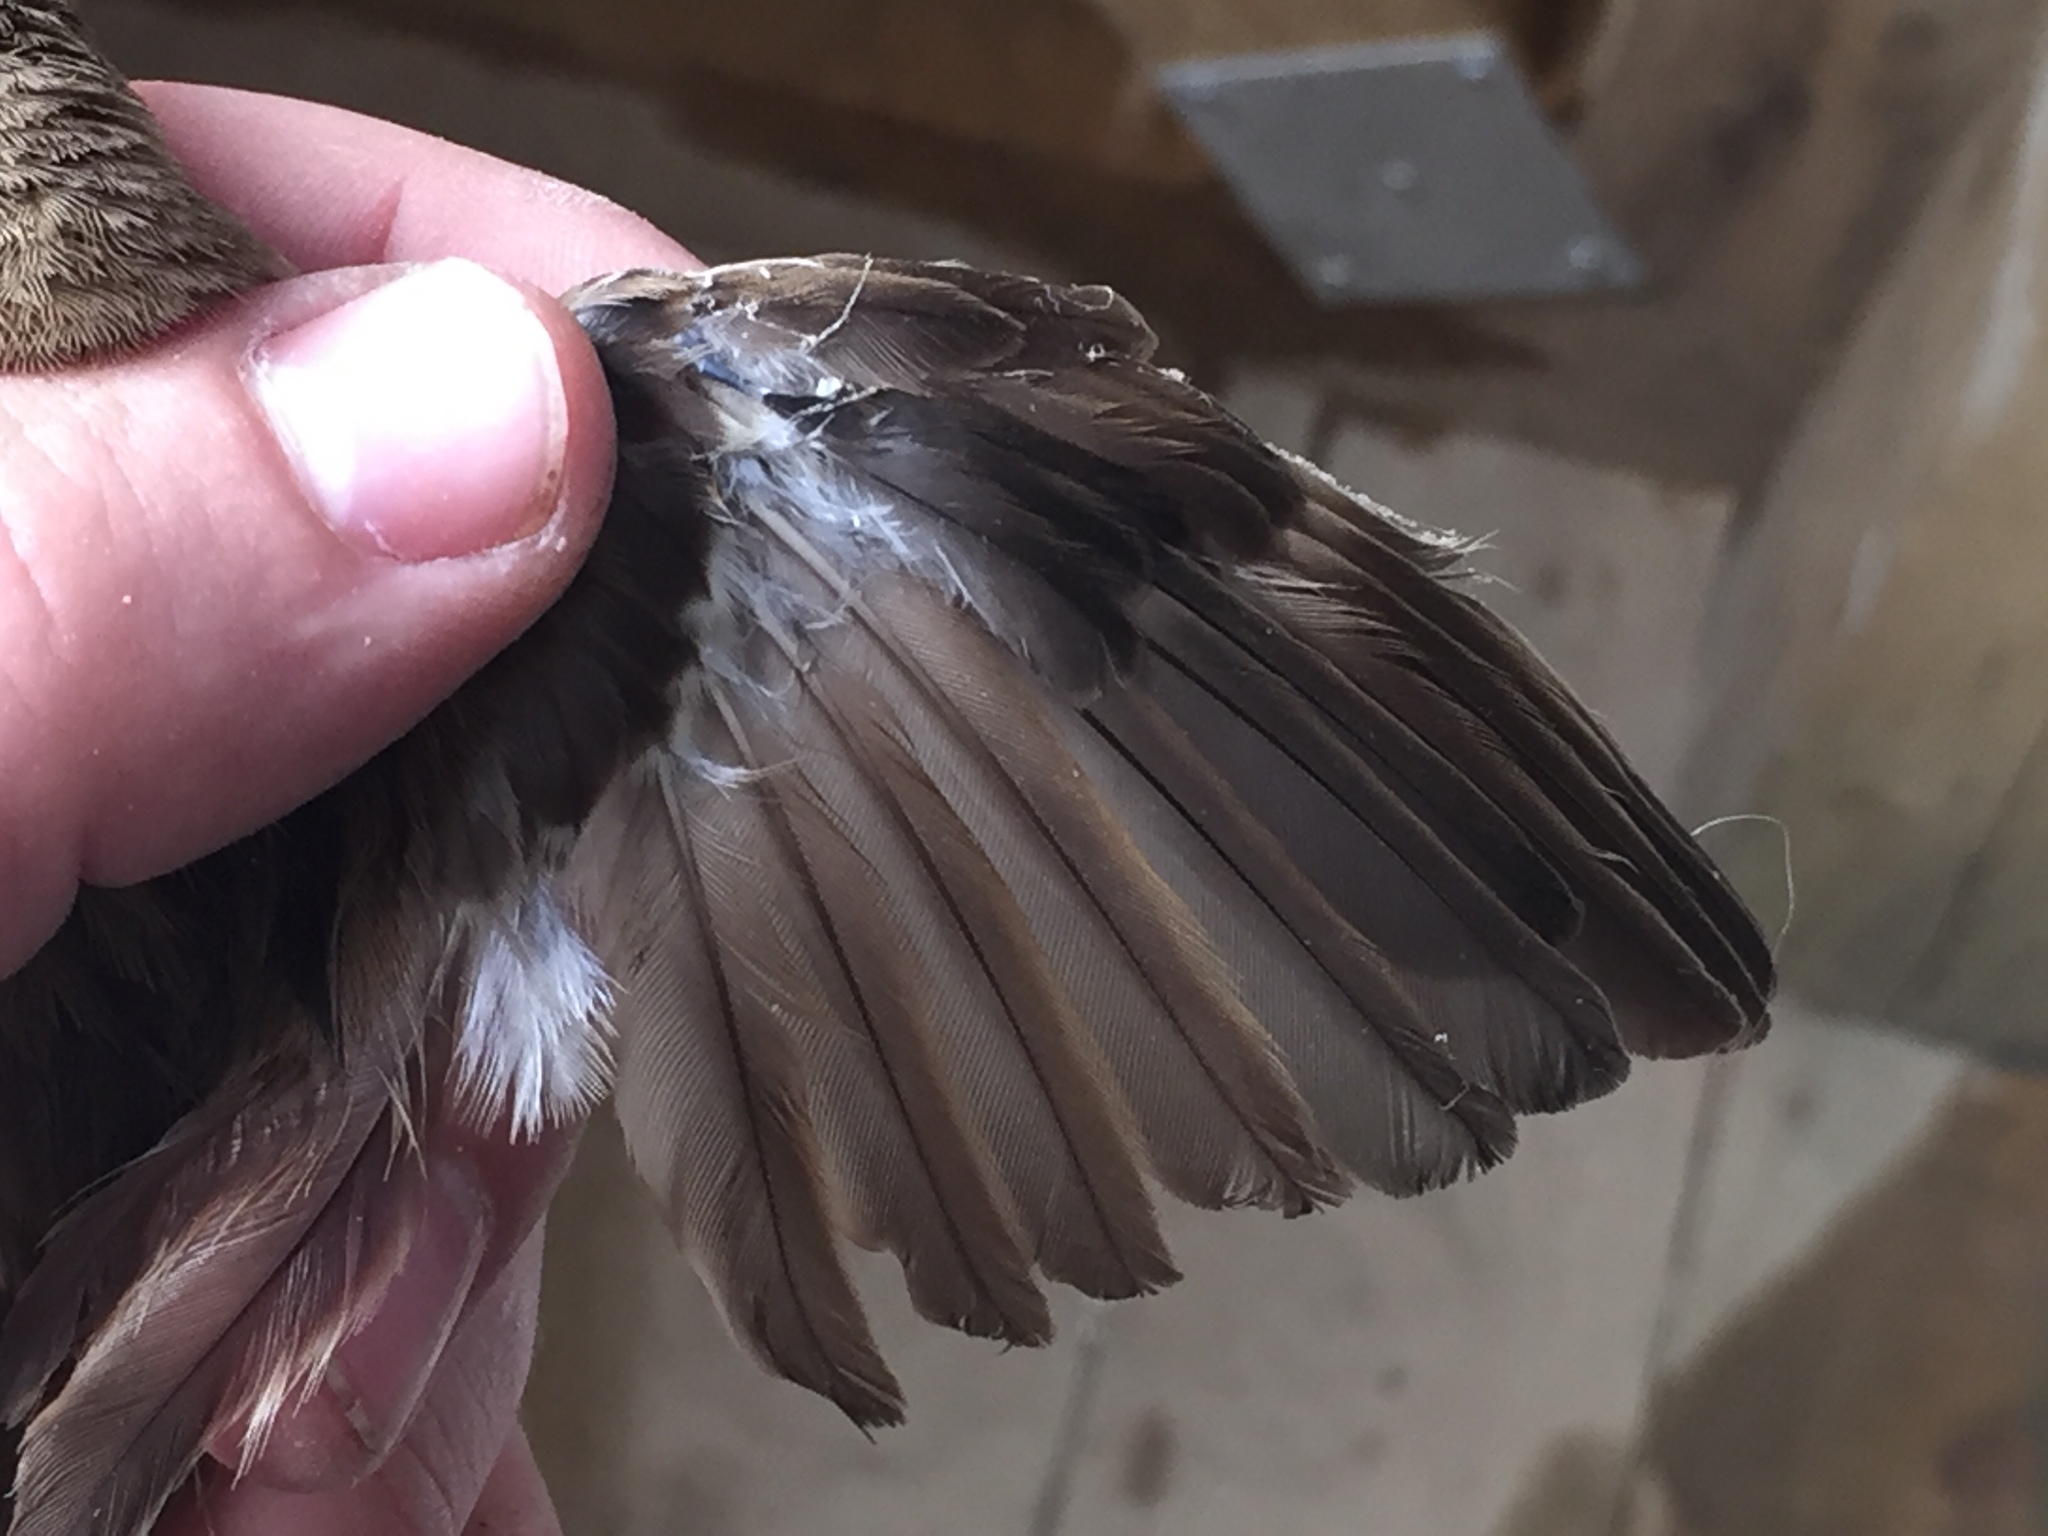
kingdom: Animalia
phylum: Chordata
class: Aves
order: Passeriformes
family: Passeridae
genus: Passer
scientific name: Passer domesticus
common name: House sparrow
